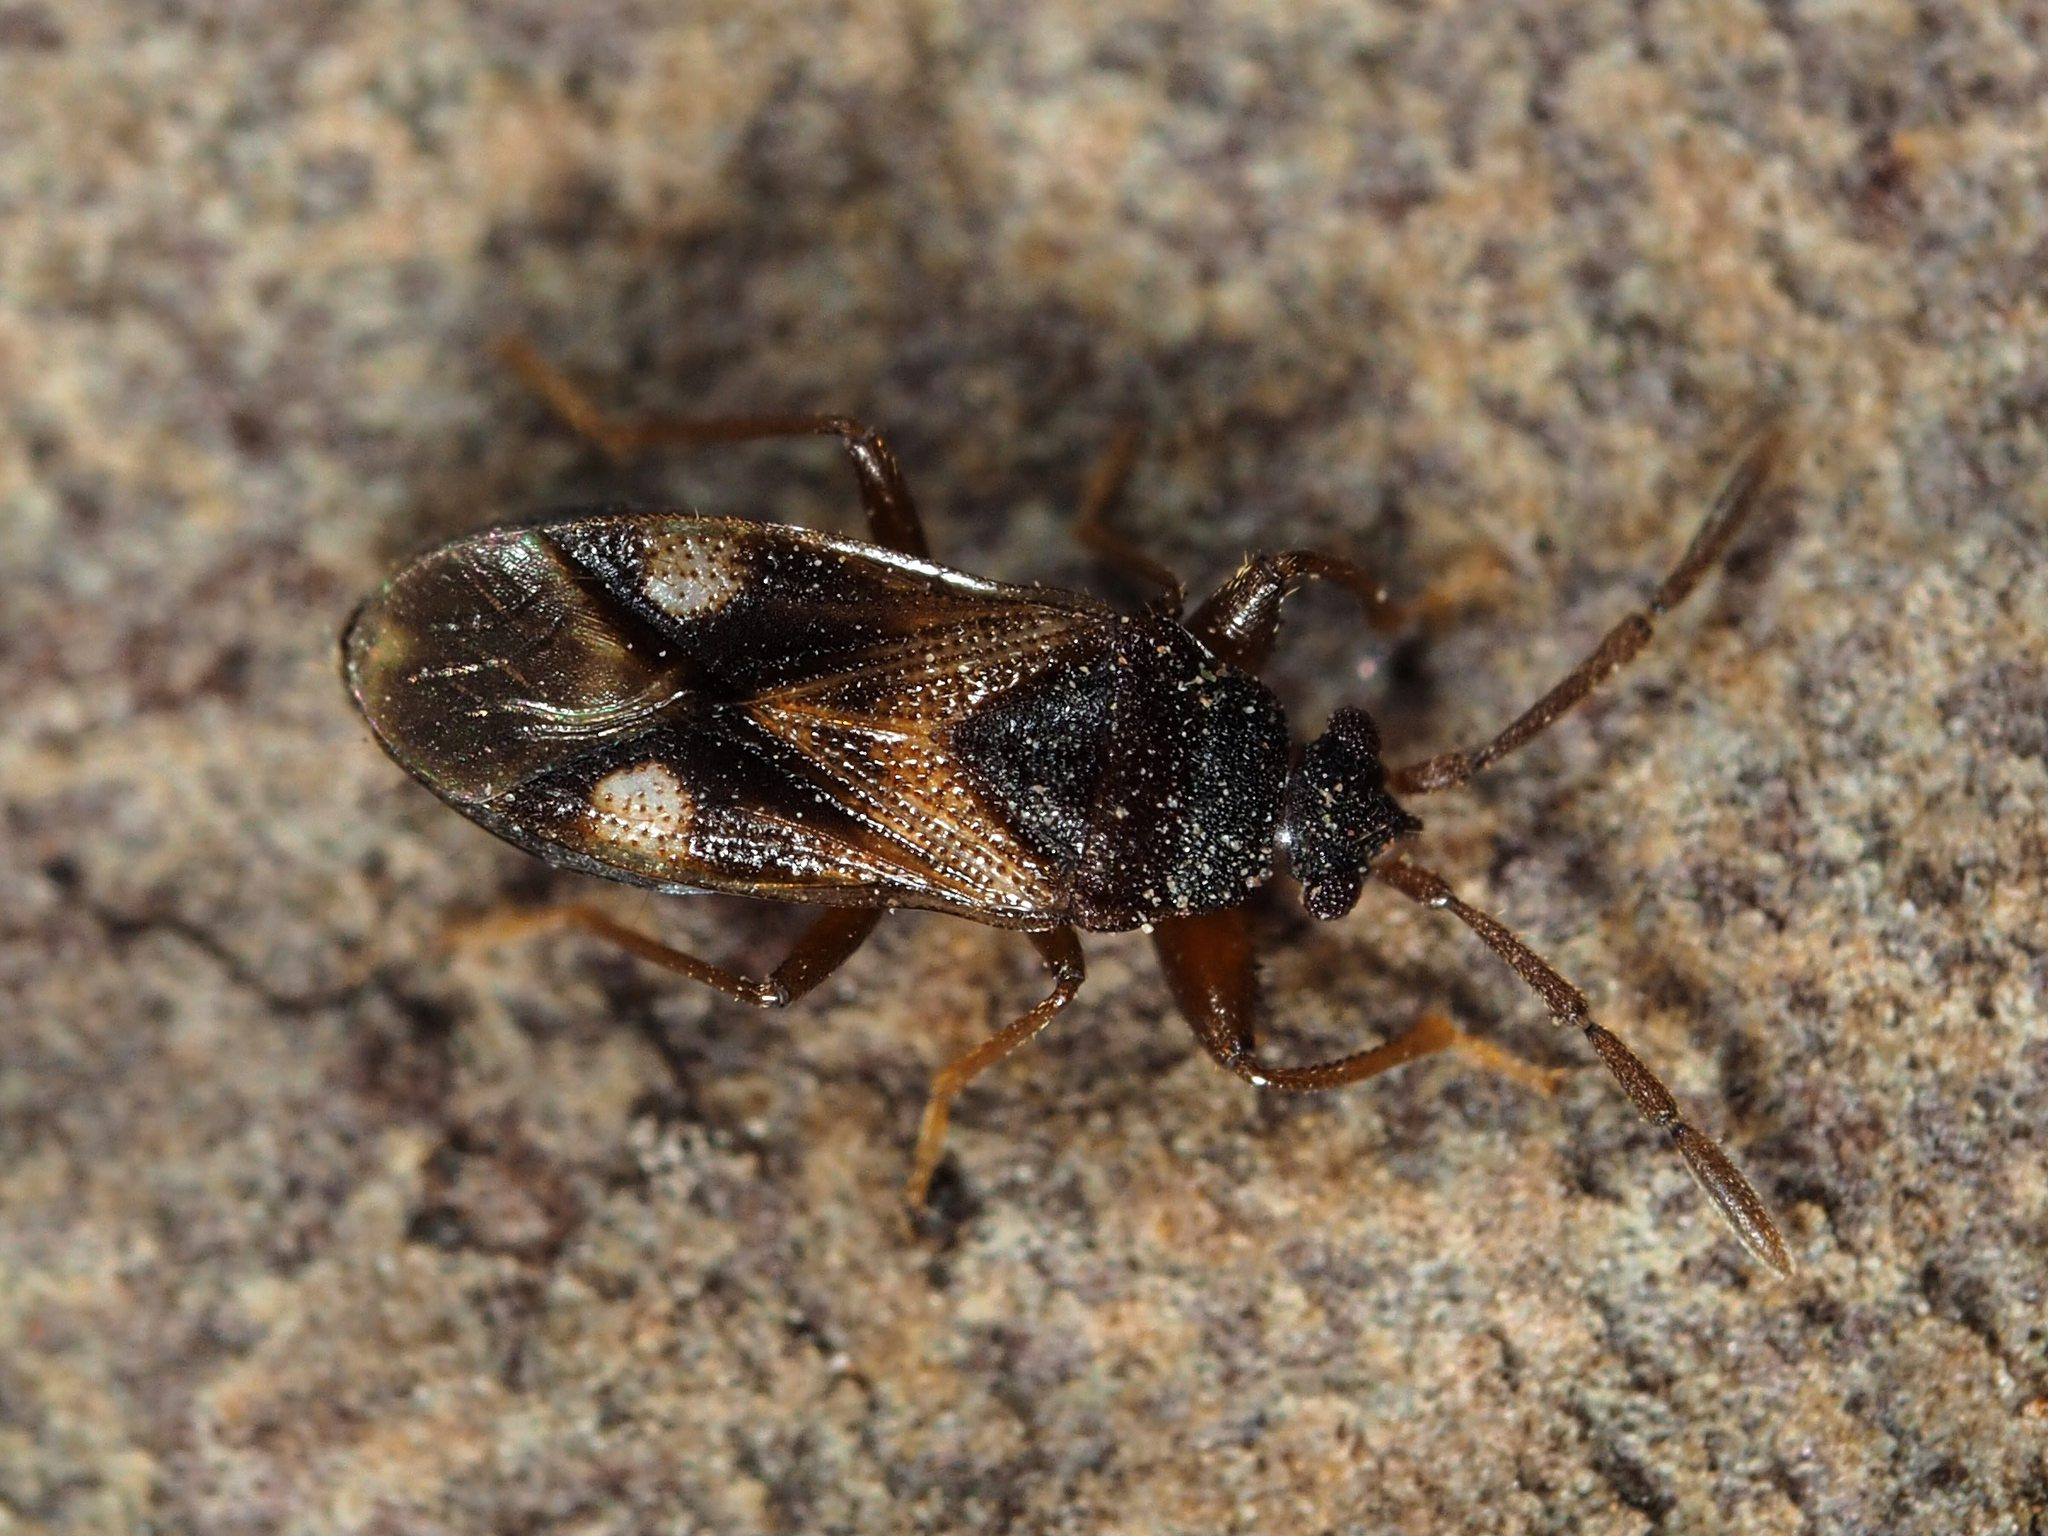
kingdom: Animalia
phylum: Arthropoda
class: Insecta
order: Hemiptera
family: Rhyparochromidae
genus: Tempyra
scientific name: Tempyra biguttula
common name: Seed bug
